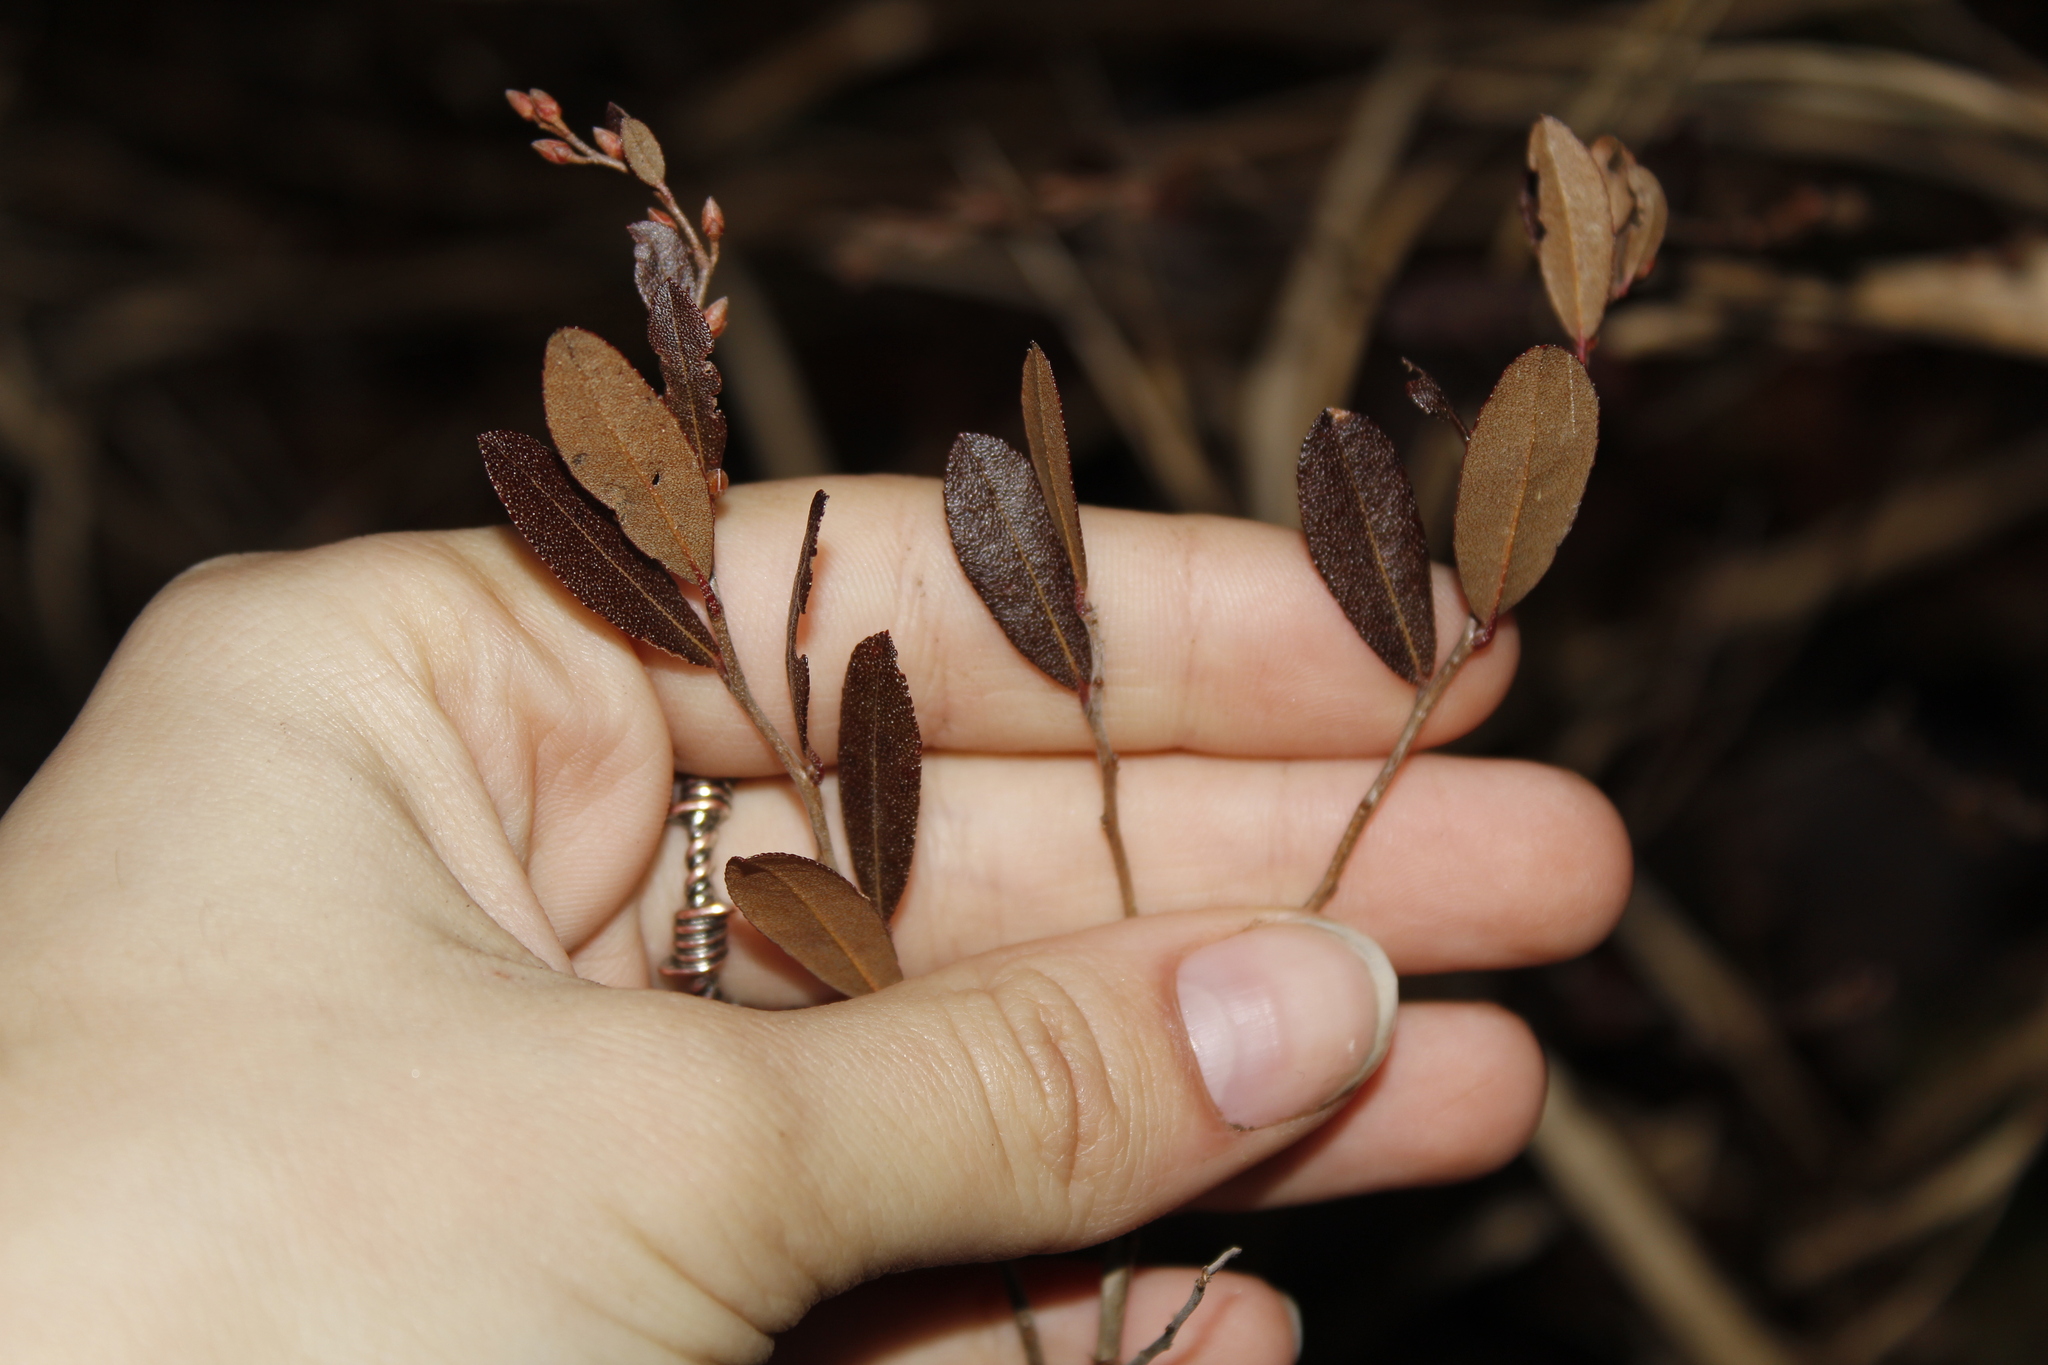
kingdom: Plantae
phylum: Tracheophyta
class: Magnoliopsida
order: Ericales
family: Ericaceae
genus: Chamaedaphne
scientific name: Chamaedaphne calyculata
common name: Leatherleaf
